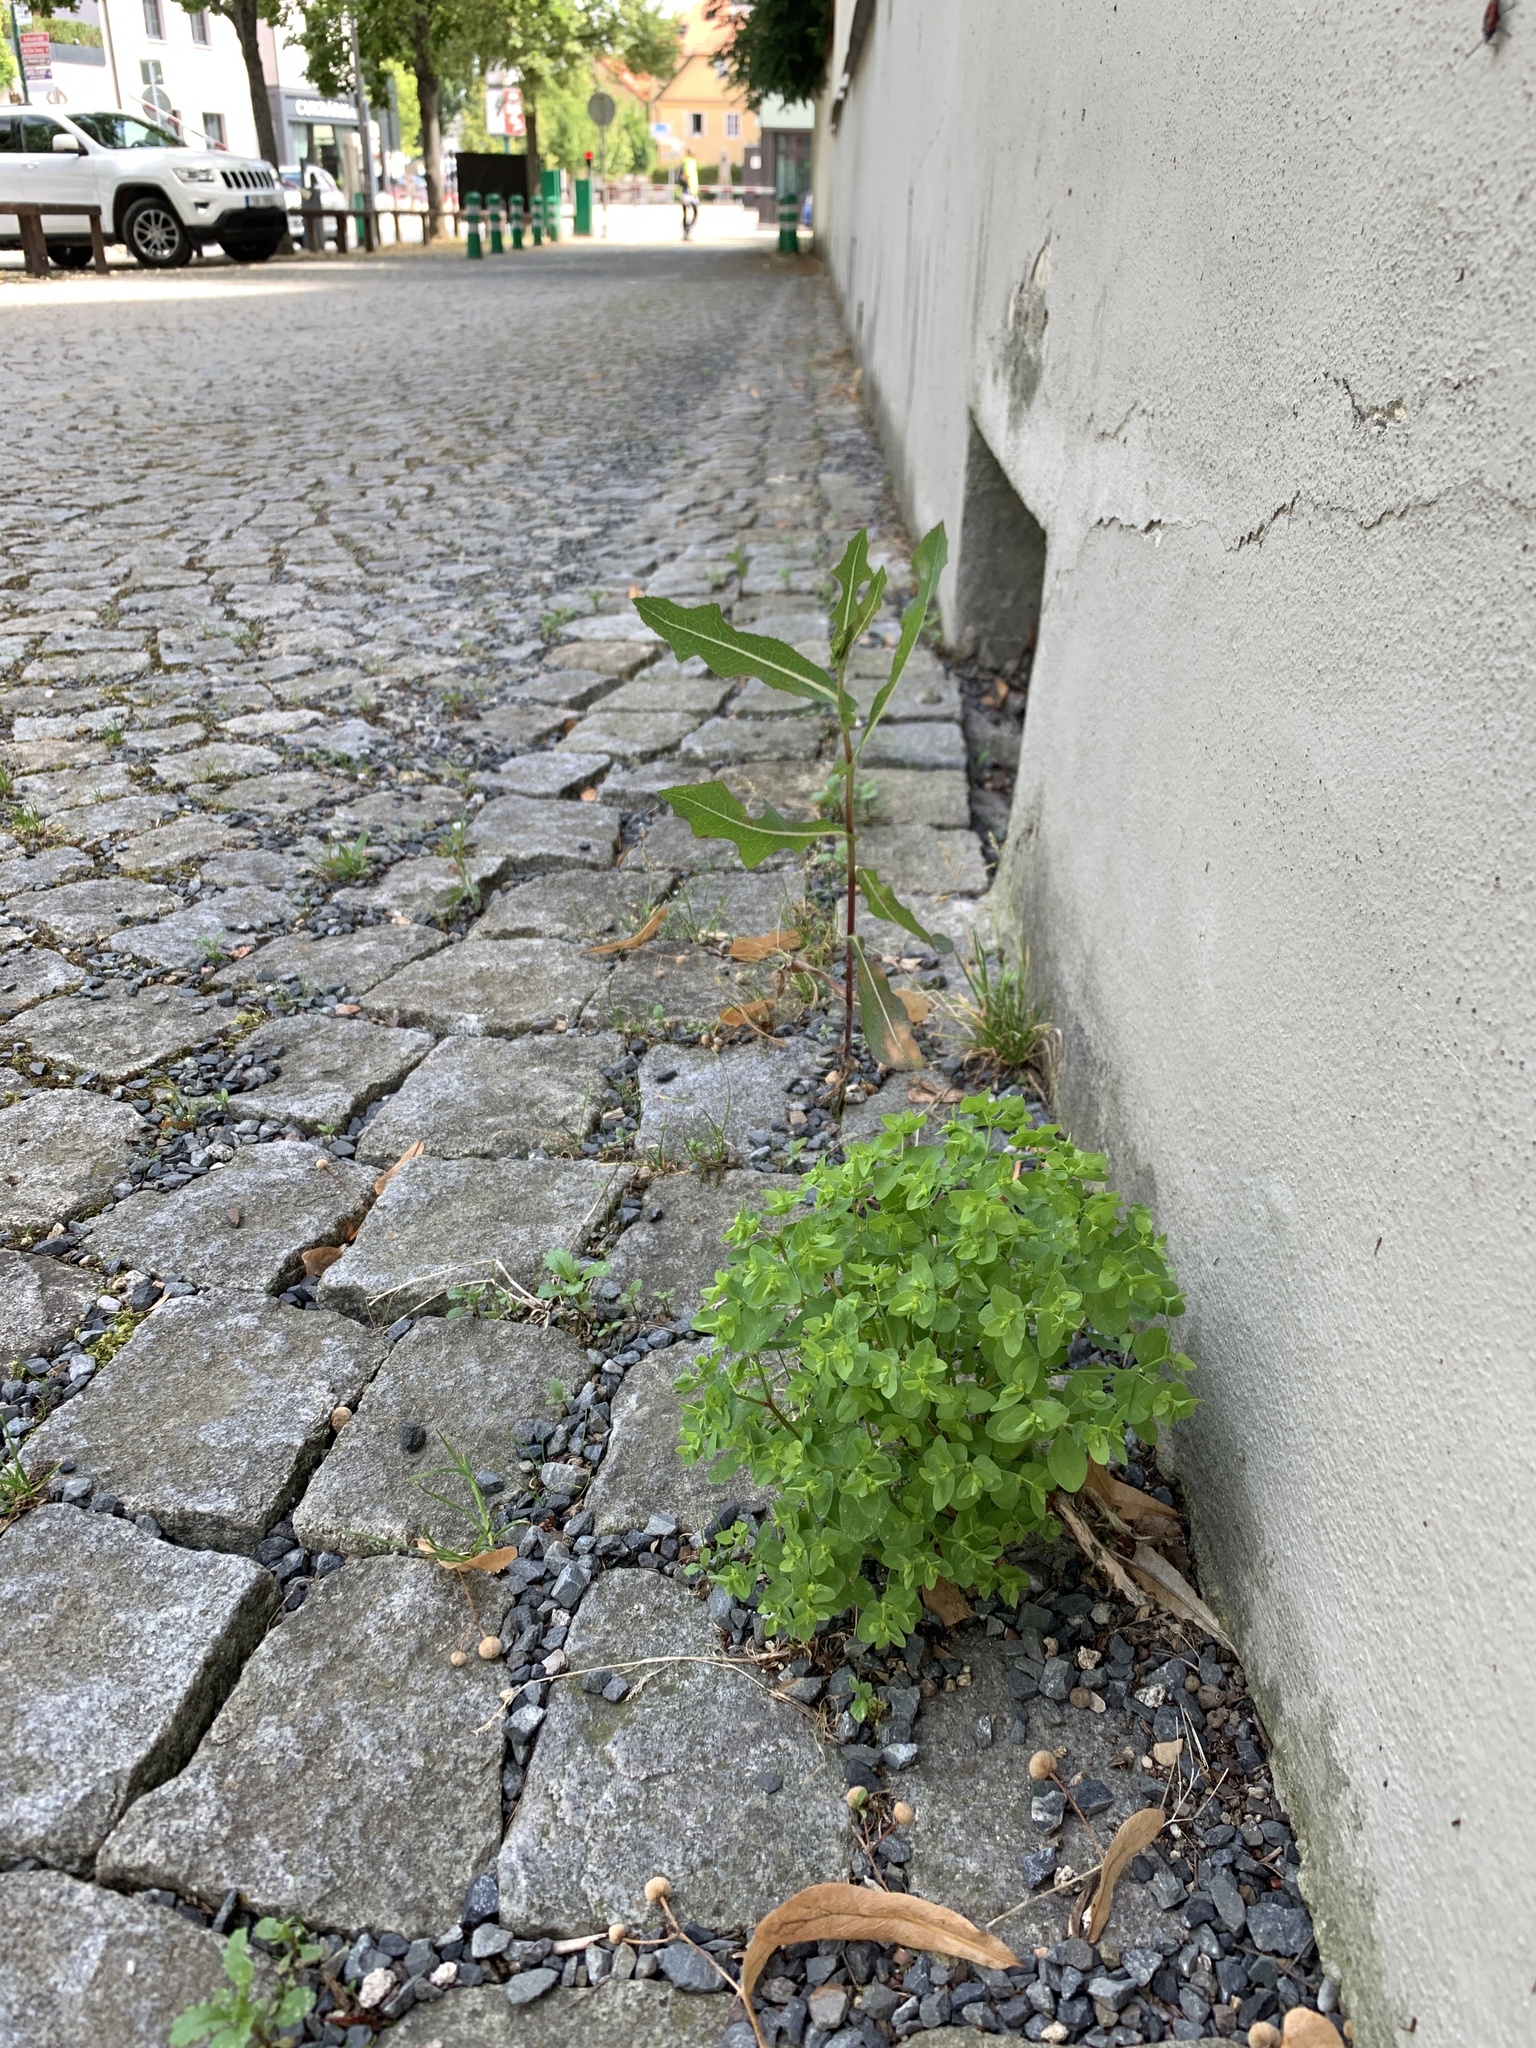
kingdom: Plantae
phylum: Tracheophyta
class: Magnoliopsida
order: Malpighiales
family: Euphorbiaceae
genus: Euphorbia
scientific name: Euphorbia peplus
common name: Petty spurge
